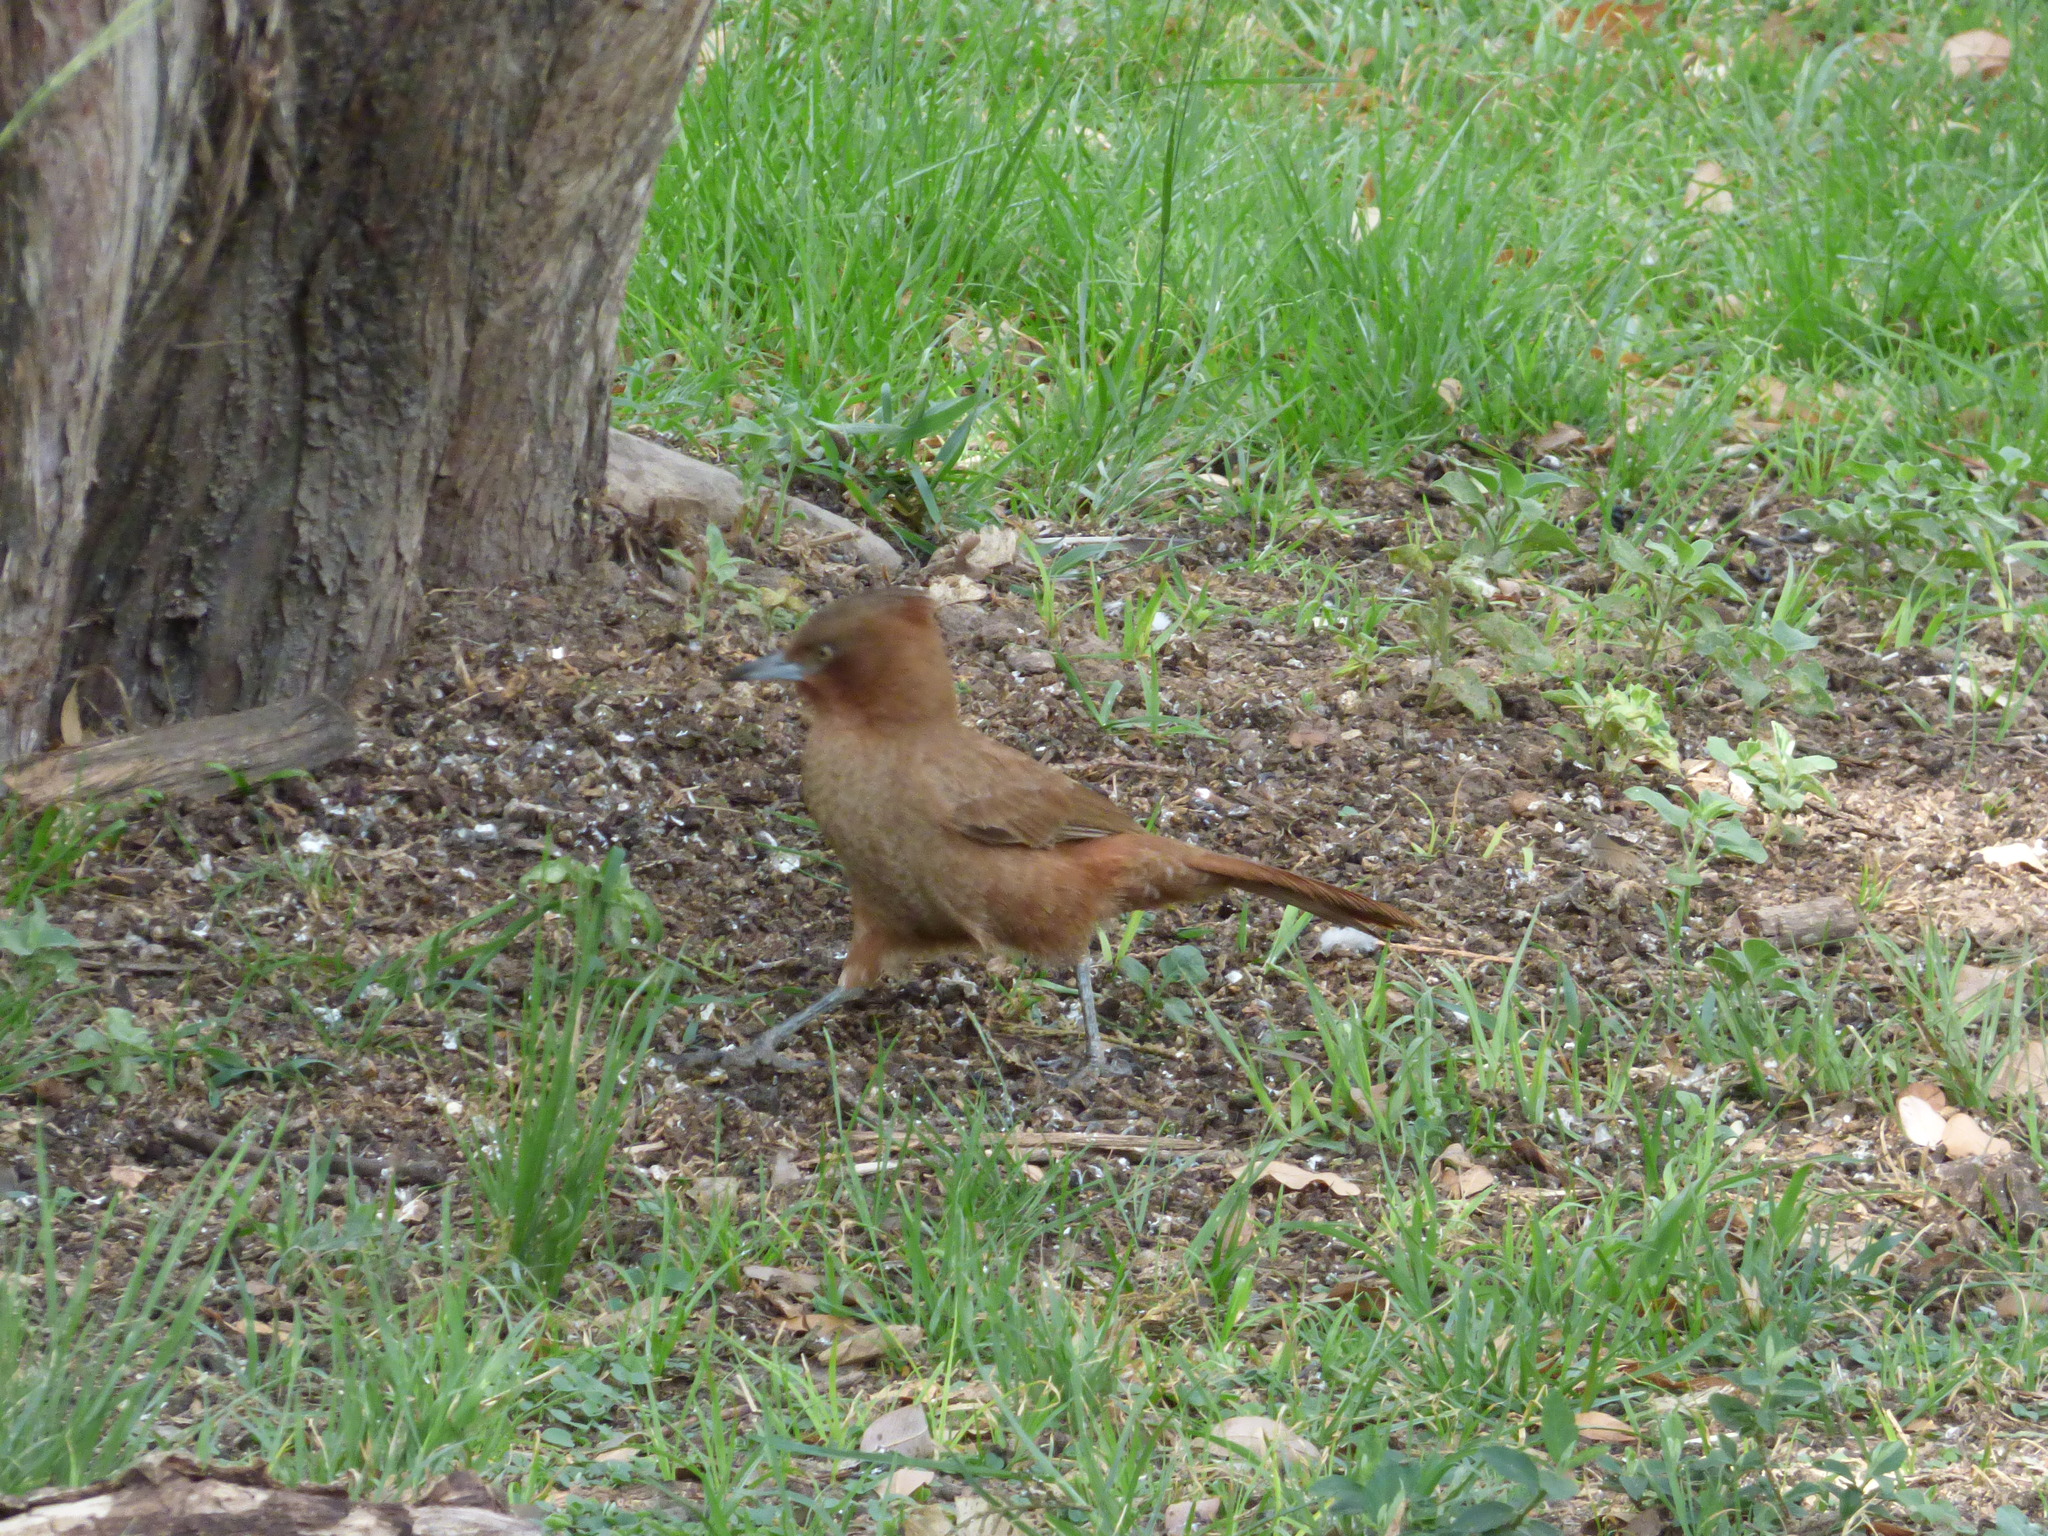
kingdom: Animalia
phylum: Chordata
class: Aves
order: Passeriformes
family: Furnariidae
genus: Pseudoseisura
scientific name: Pseudoseisura lophotes
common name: Brown cacholote
